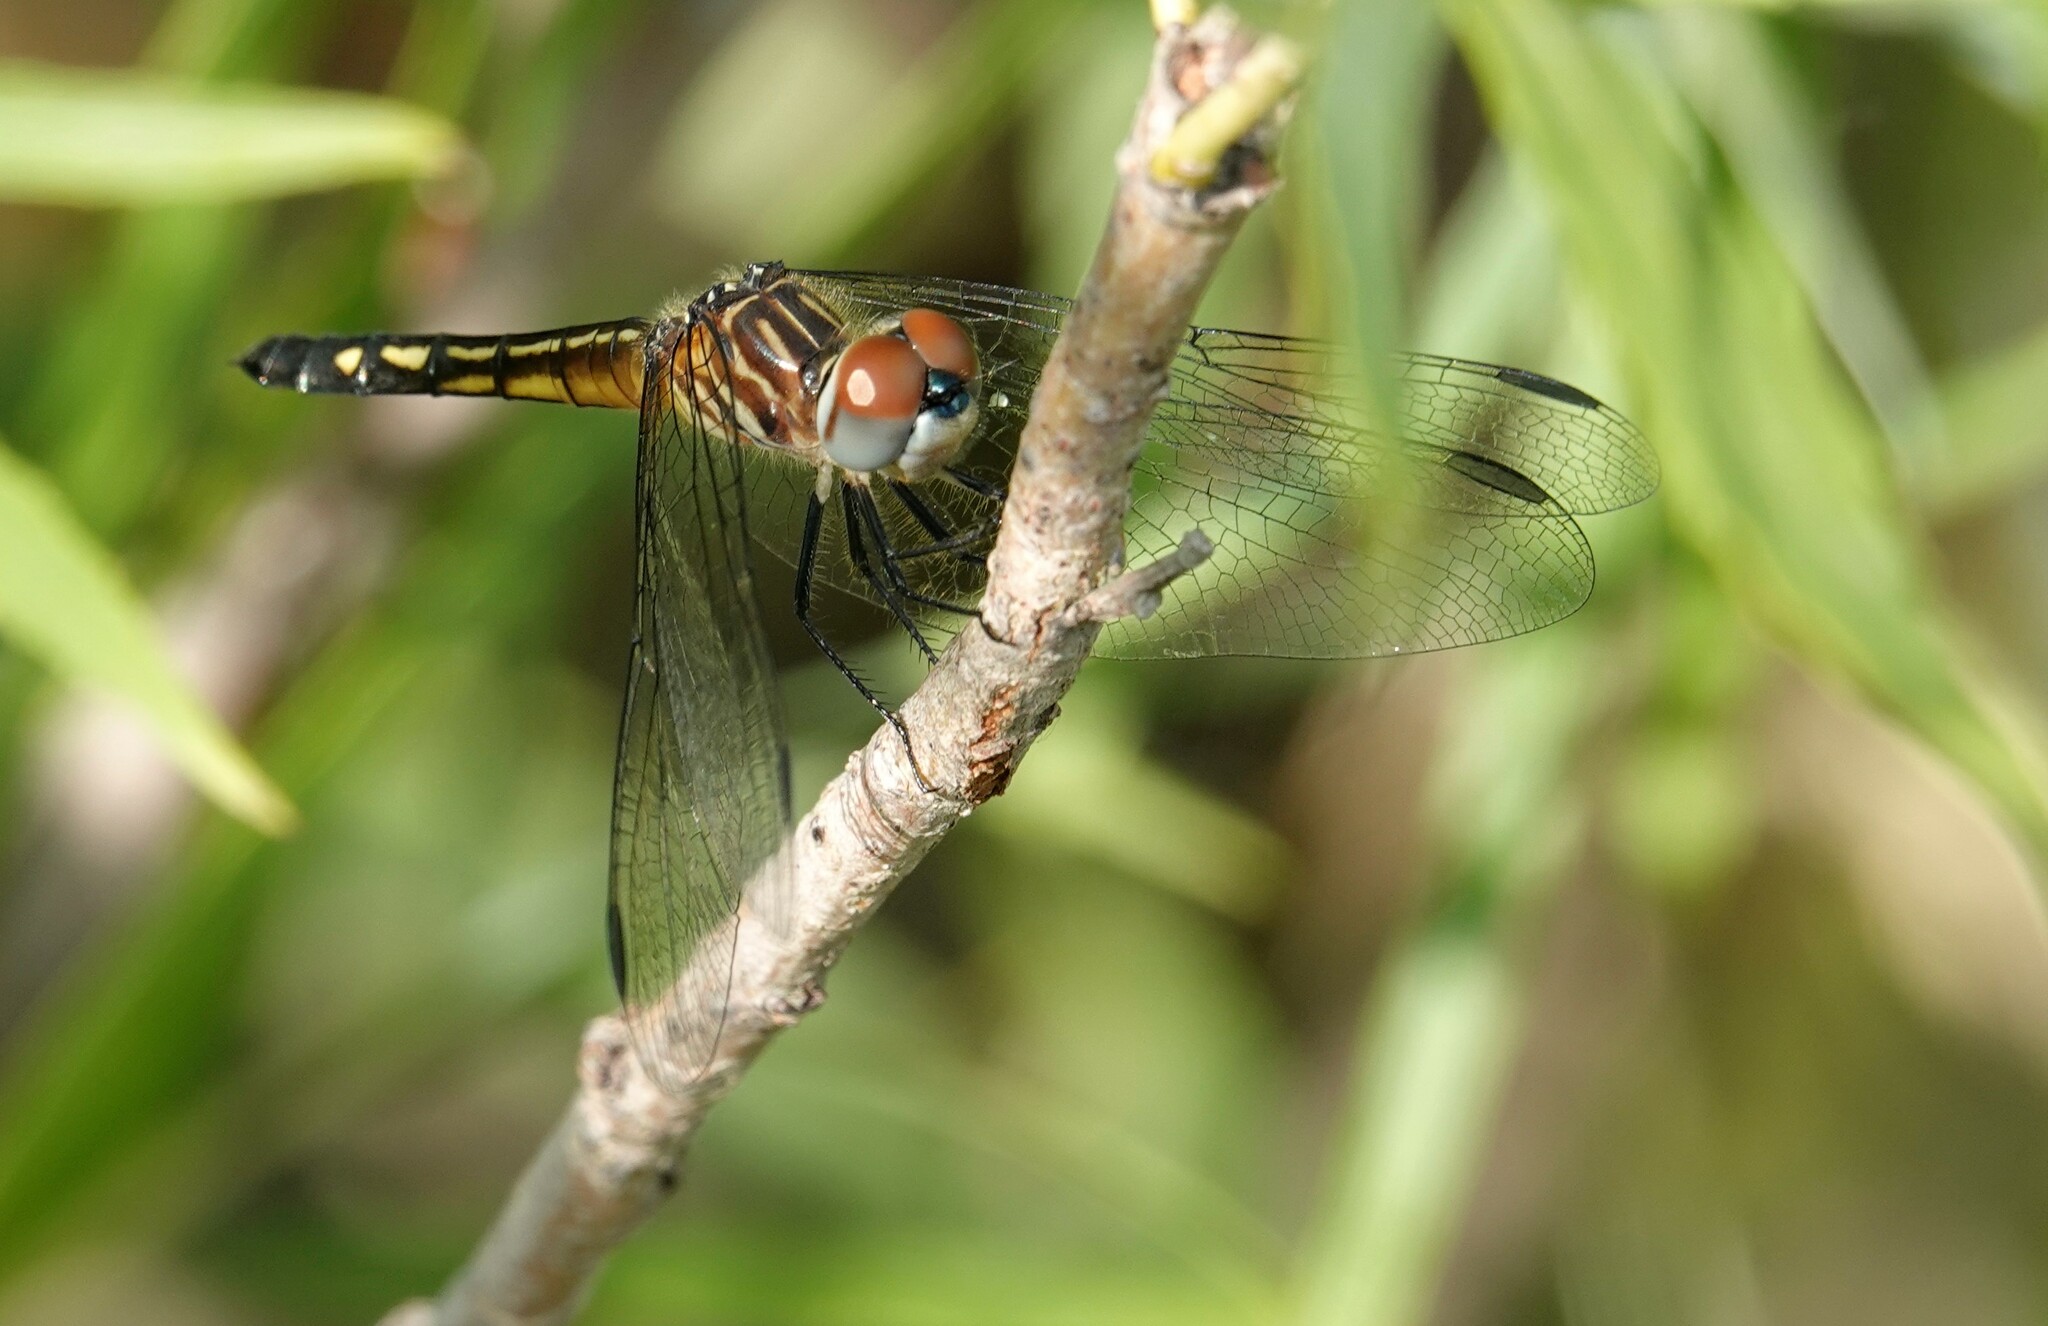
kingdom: Animalia
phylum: Arthropoda
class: Insecta
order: Odonata
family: Libellulidae
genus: Pachydiplax
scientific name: Pachydiplax longipennis
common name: Blue dasher
